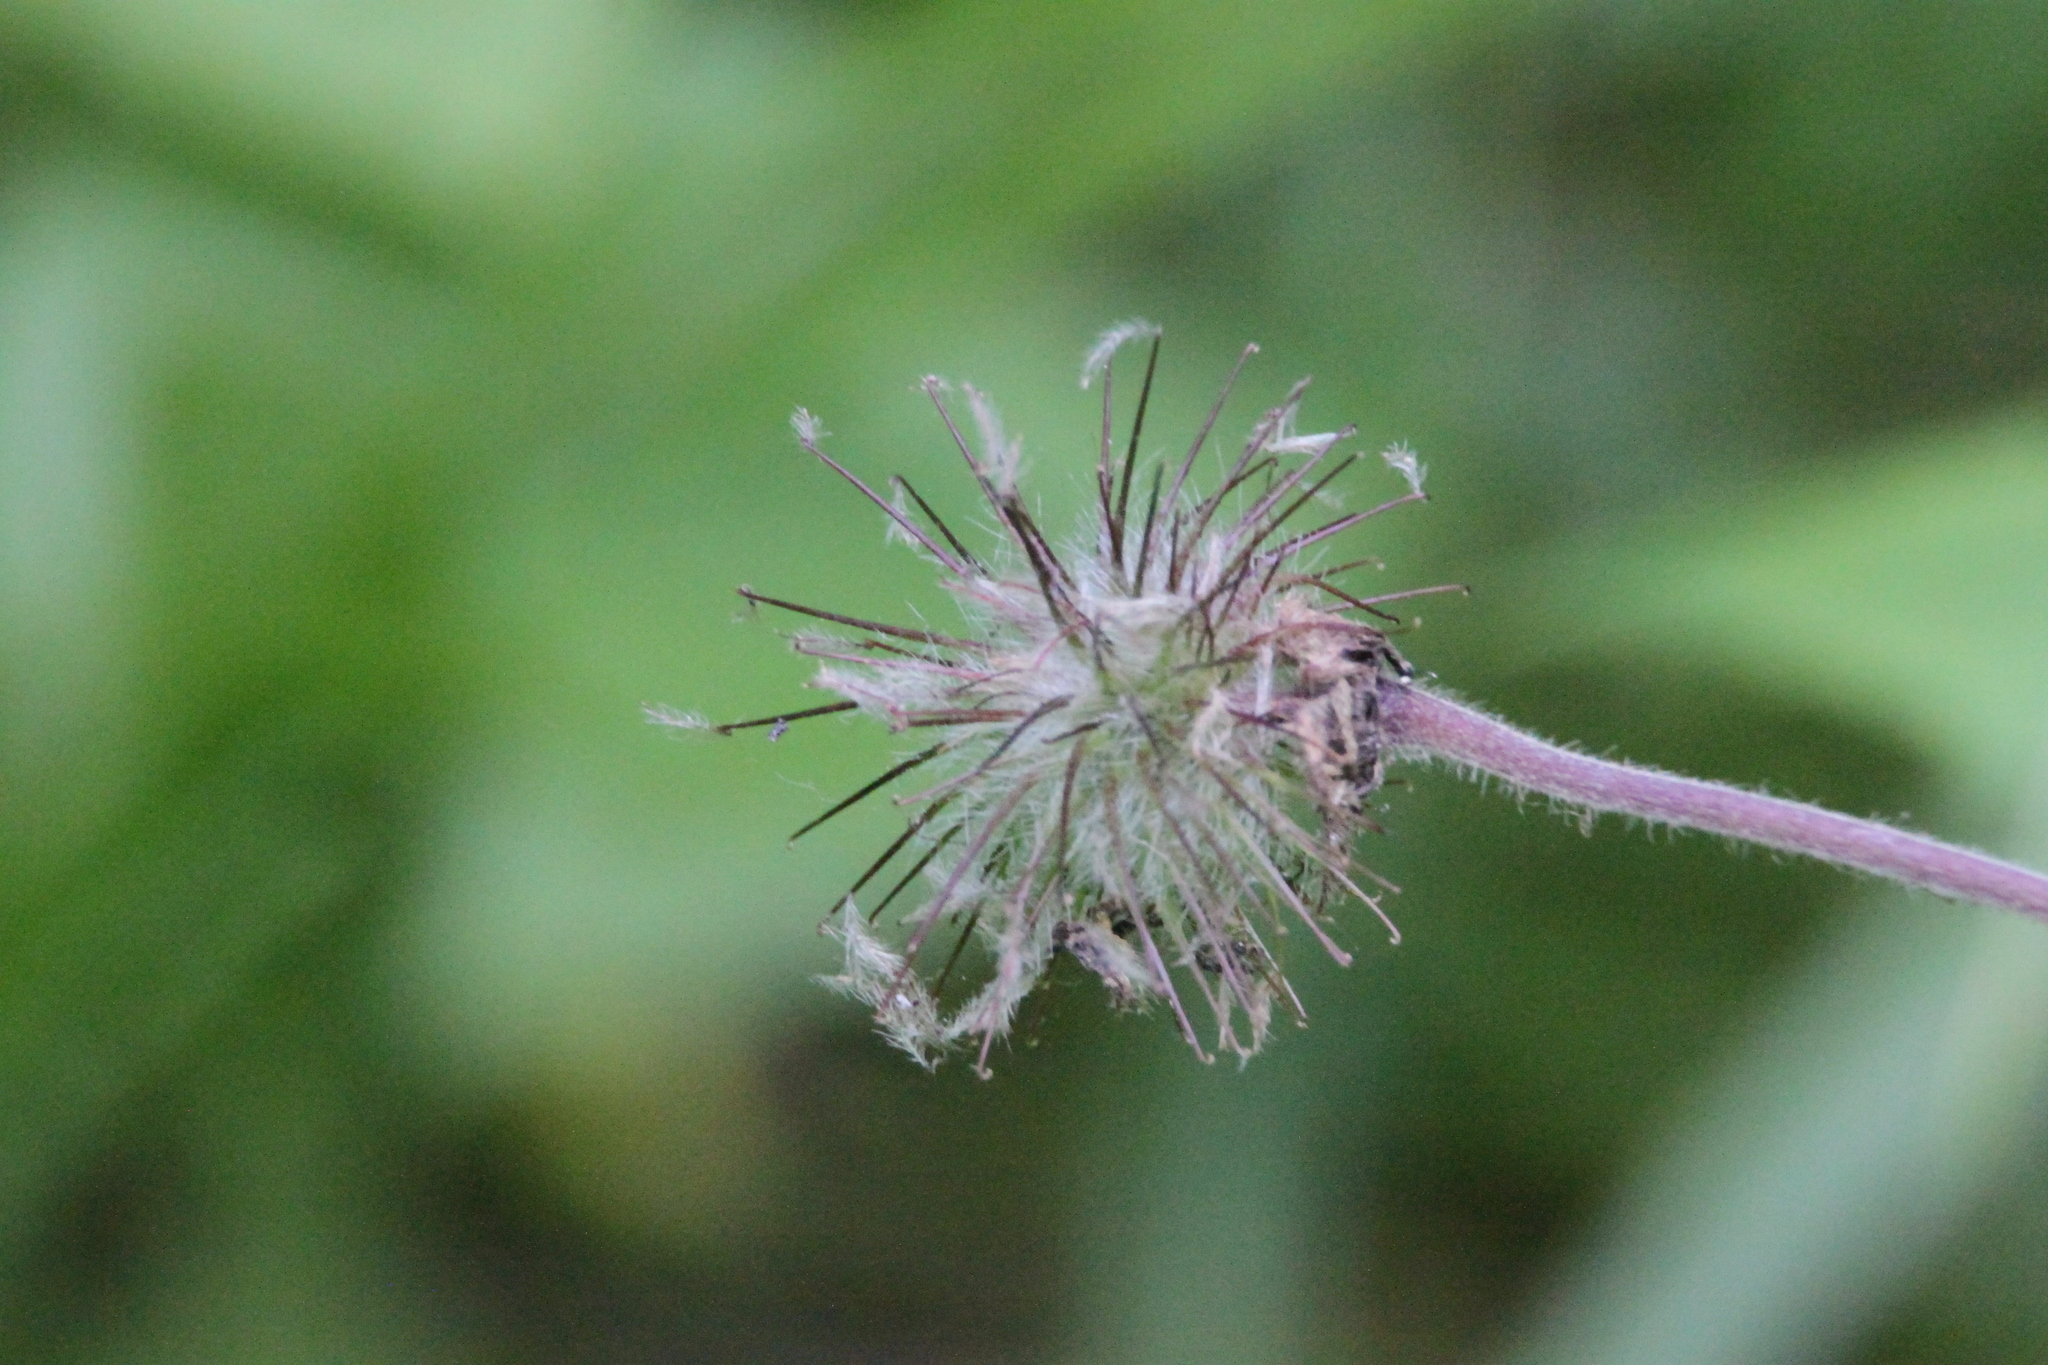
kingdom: Plantae
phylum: Tracheophyta
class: Magnoliopsida
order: Rosales
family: Rosaceae
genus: Geum
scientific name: Geum rivale
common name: Water avens
